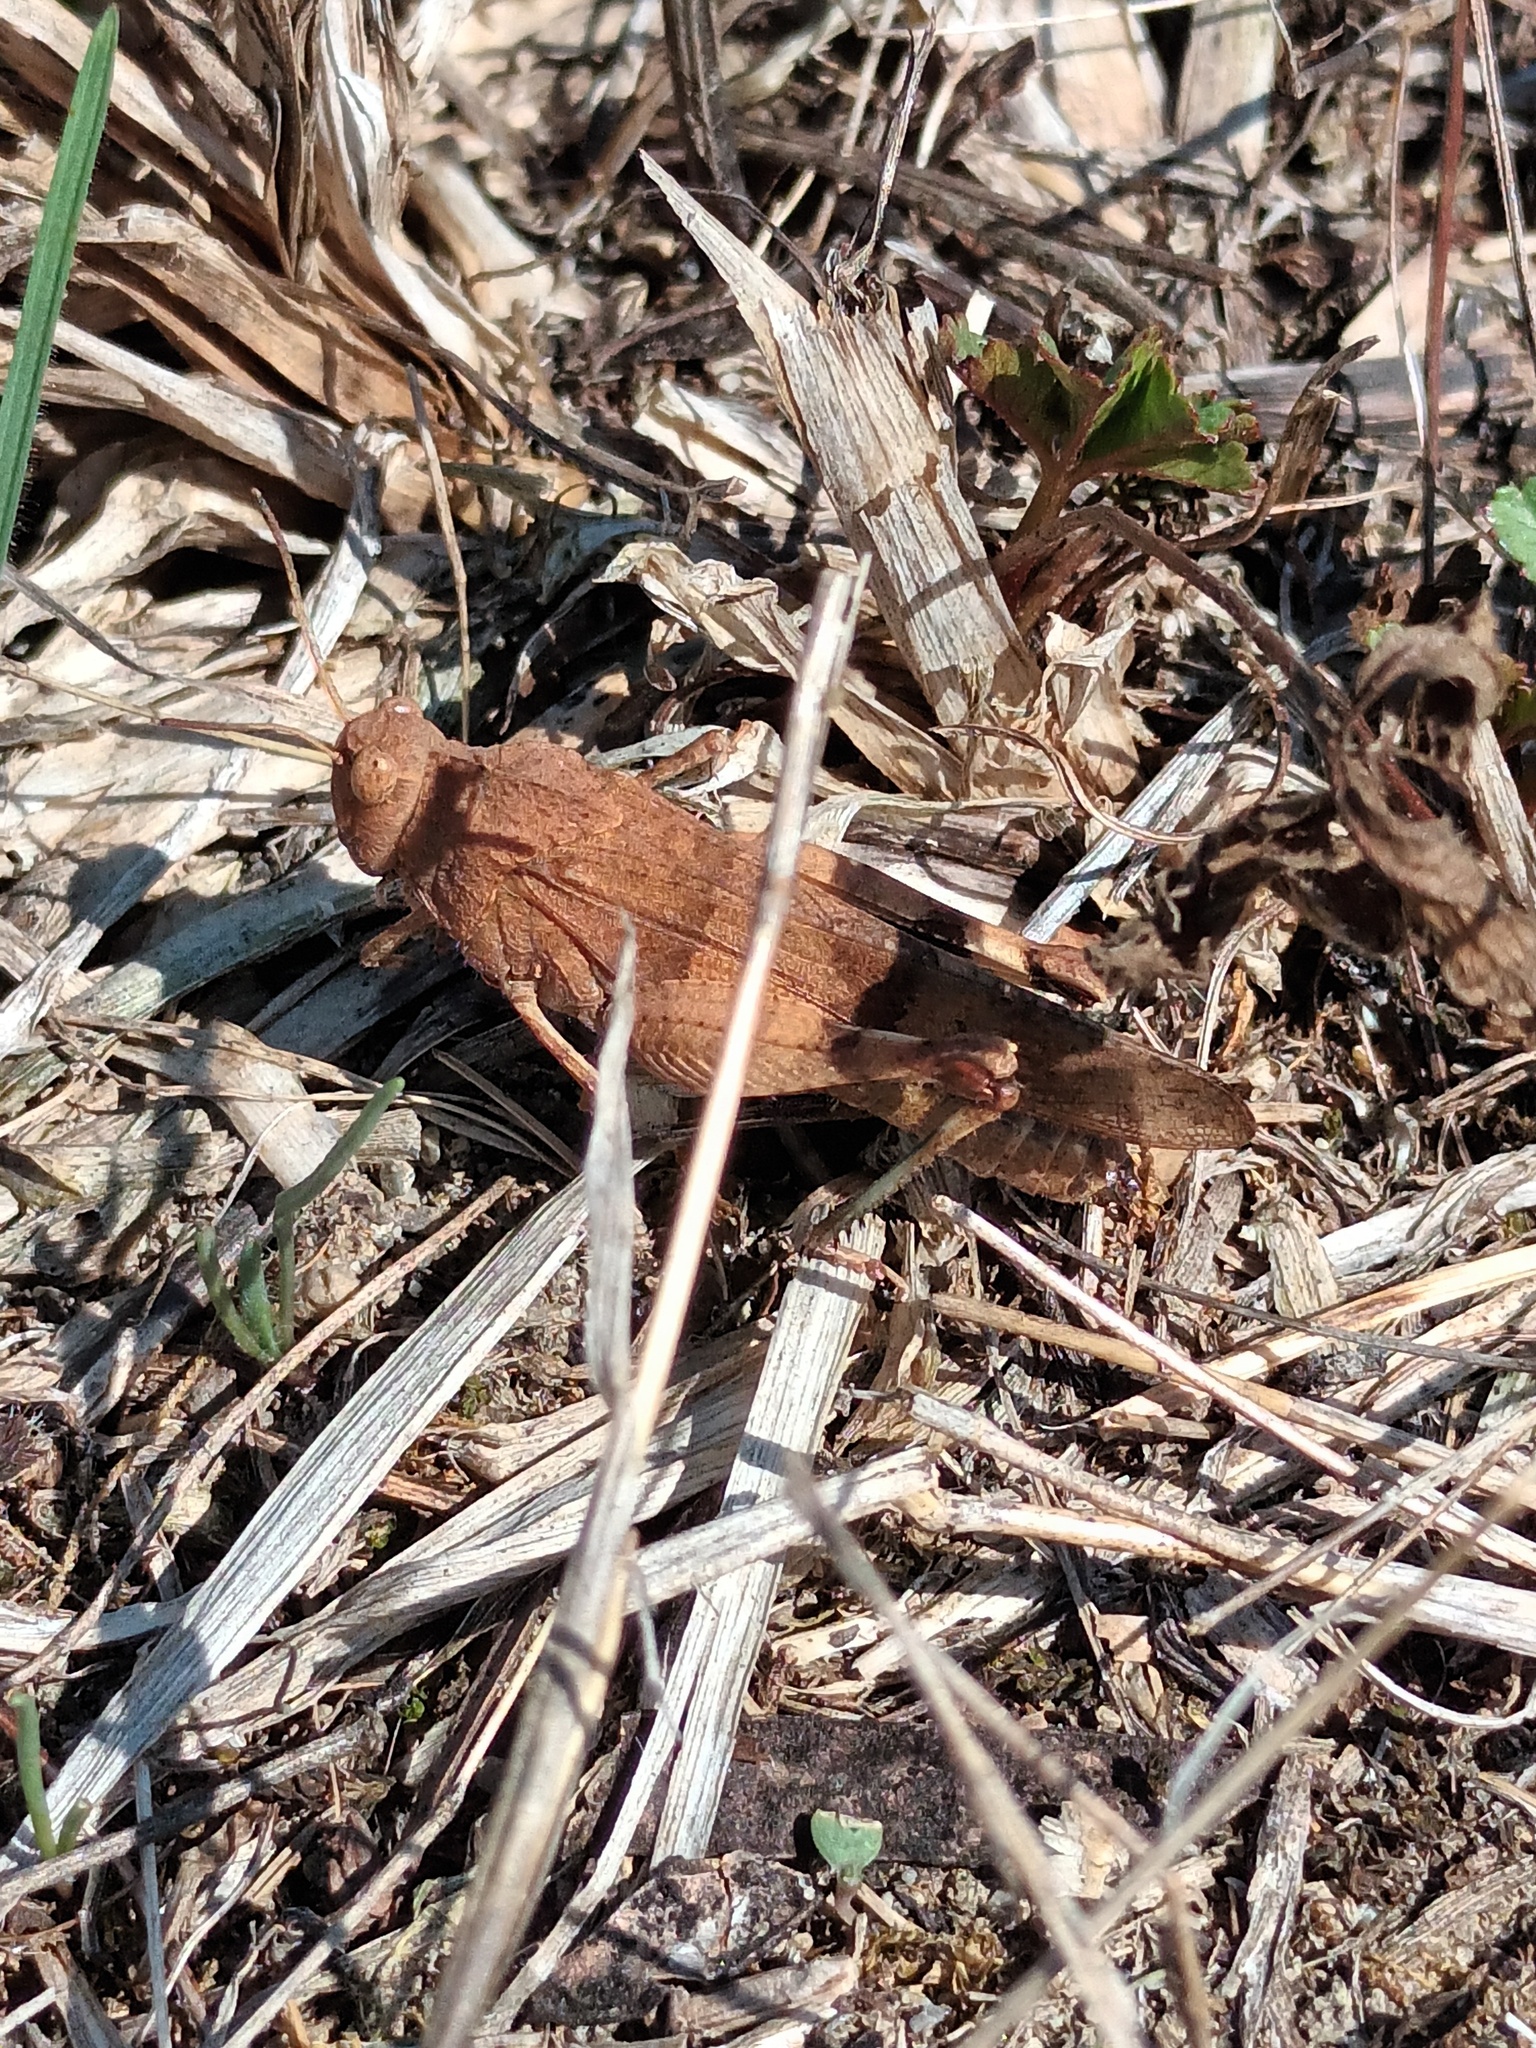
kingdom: Animalia
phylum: Arthropoda
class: Insecta
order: Orthoptera
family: Acrididae
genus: Oedipoda
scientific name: Oedipoda caerulescens
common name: Blue-winged grasshopper
